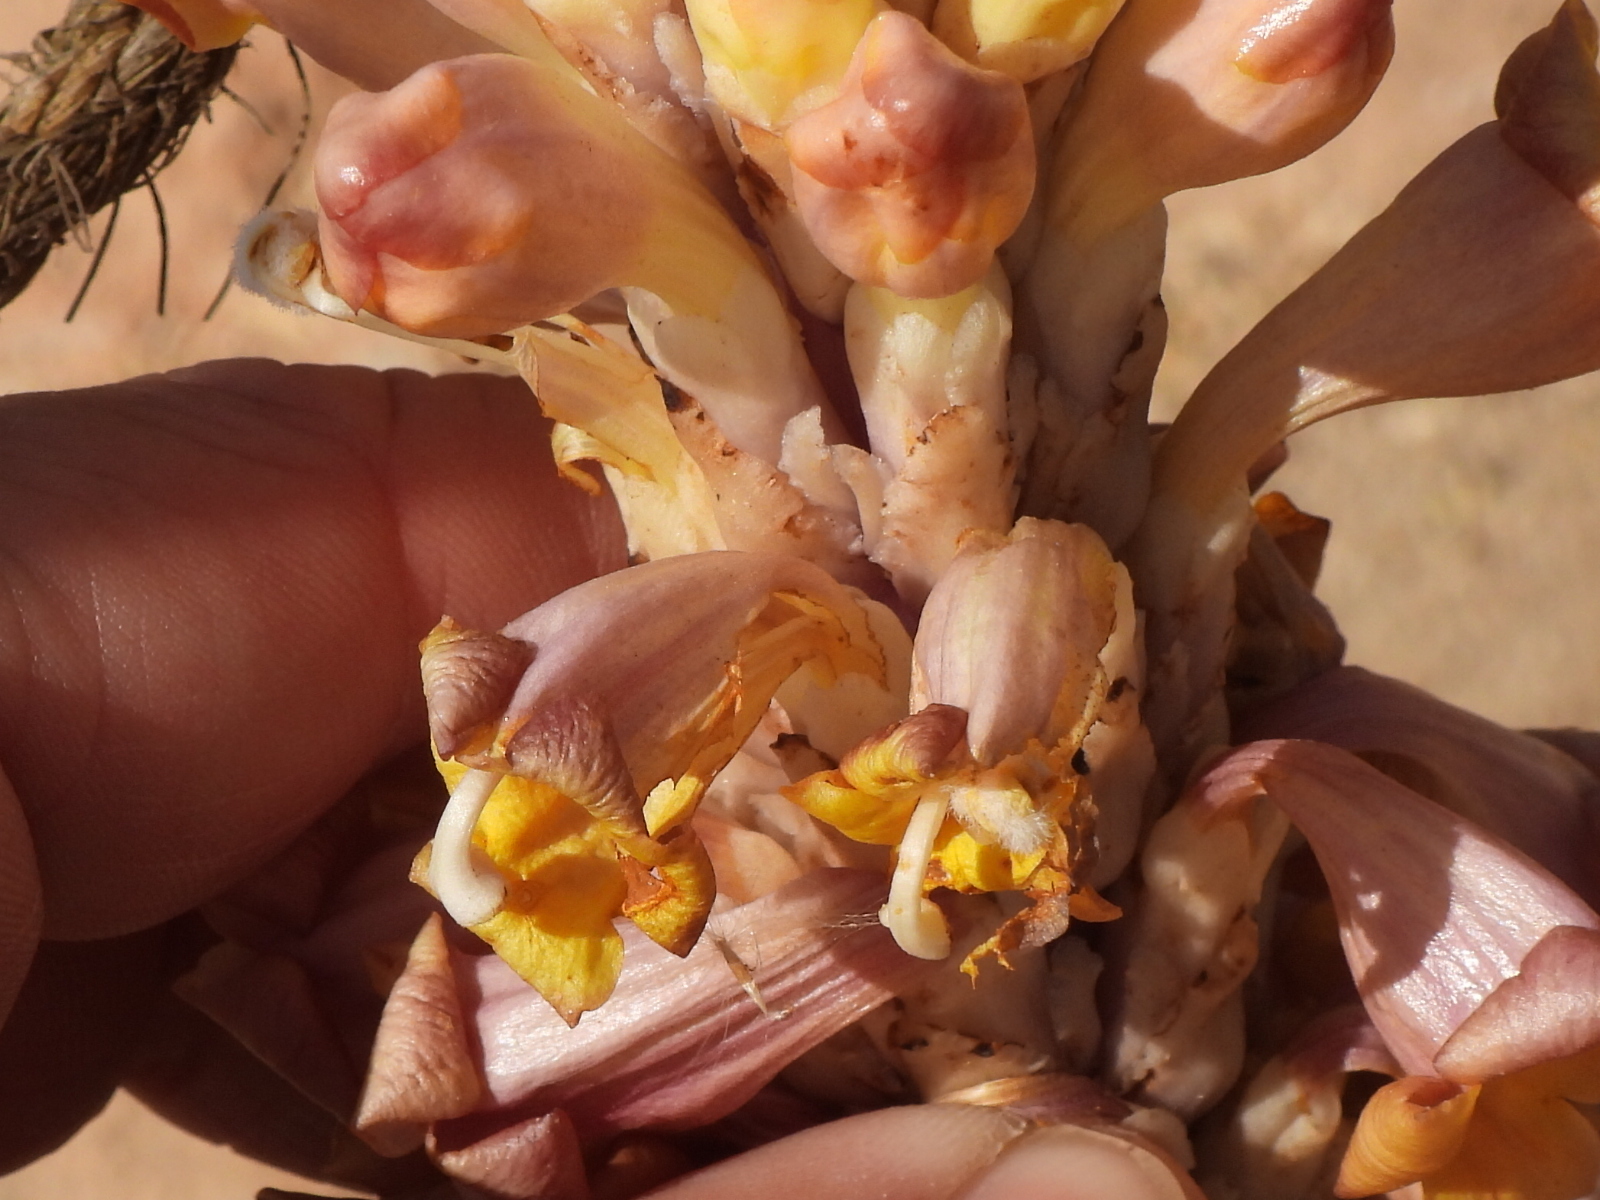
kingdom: Plantae
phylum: Tracheophyta
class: Magnoliopsida
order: Lamiales
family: Orobanchaceae
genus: Cistanche
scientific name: Cistanche tubulosa
